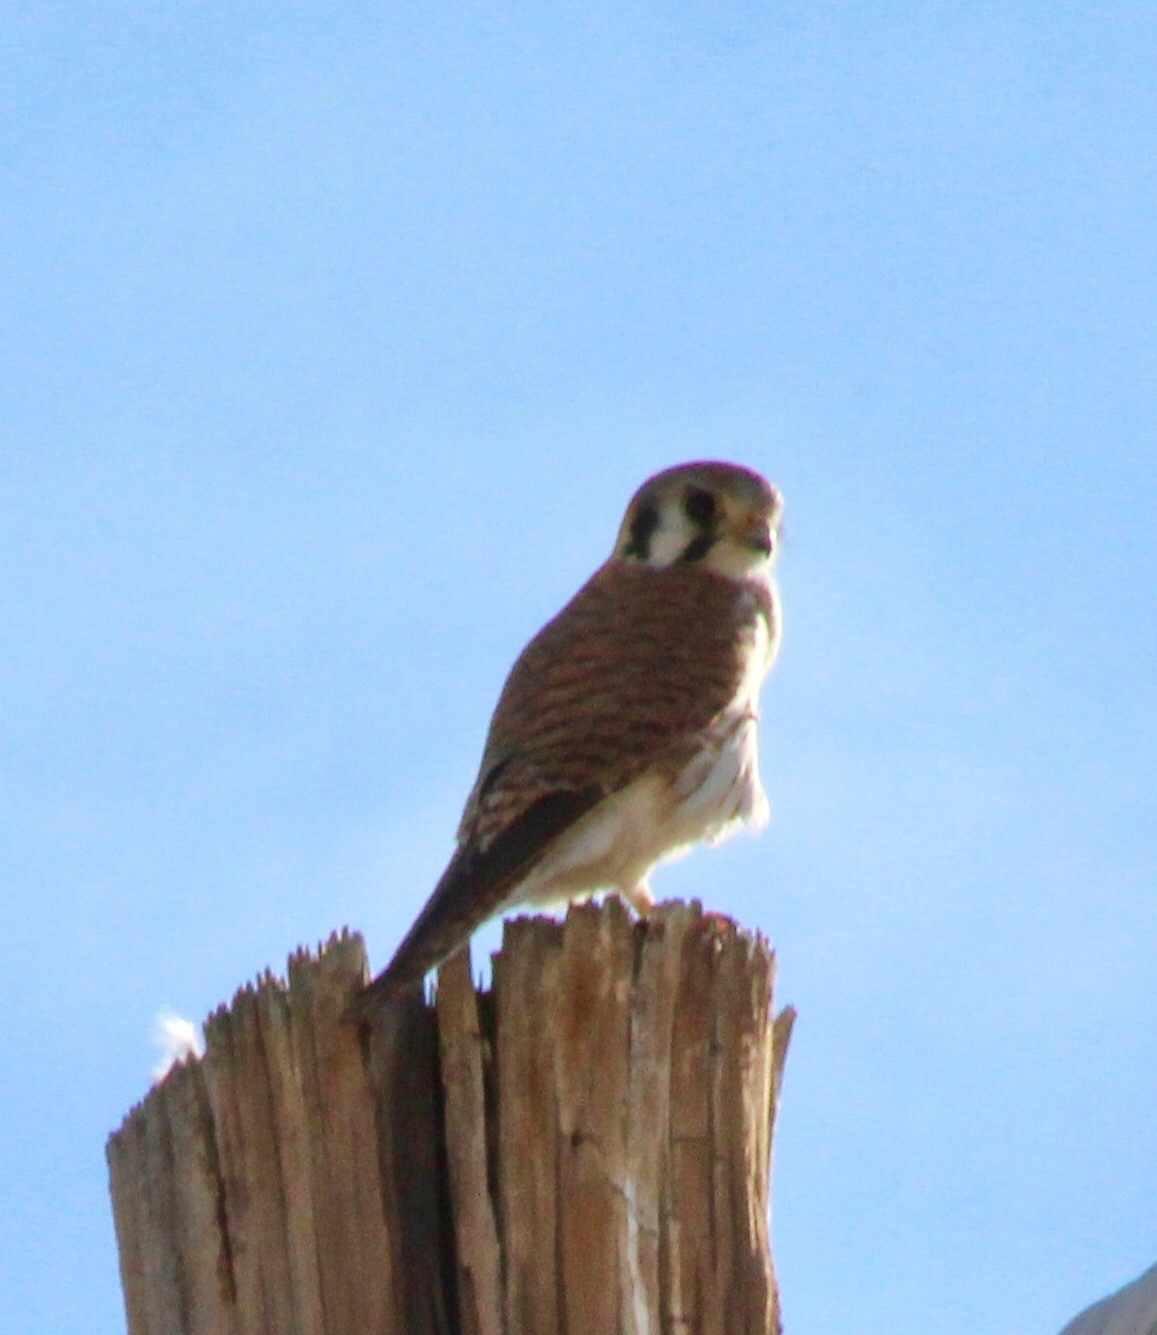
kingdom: Animalia
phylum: Chordata
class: Aves
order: Falconiformes
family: Falconidae
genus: Falco
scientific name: Falco sparverius
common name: American kestrel
